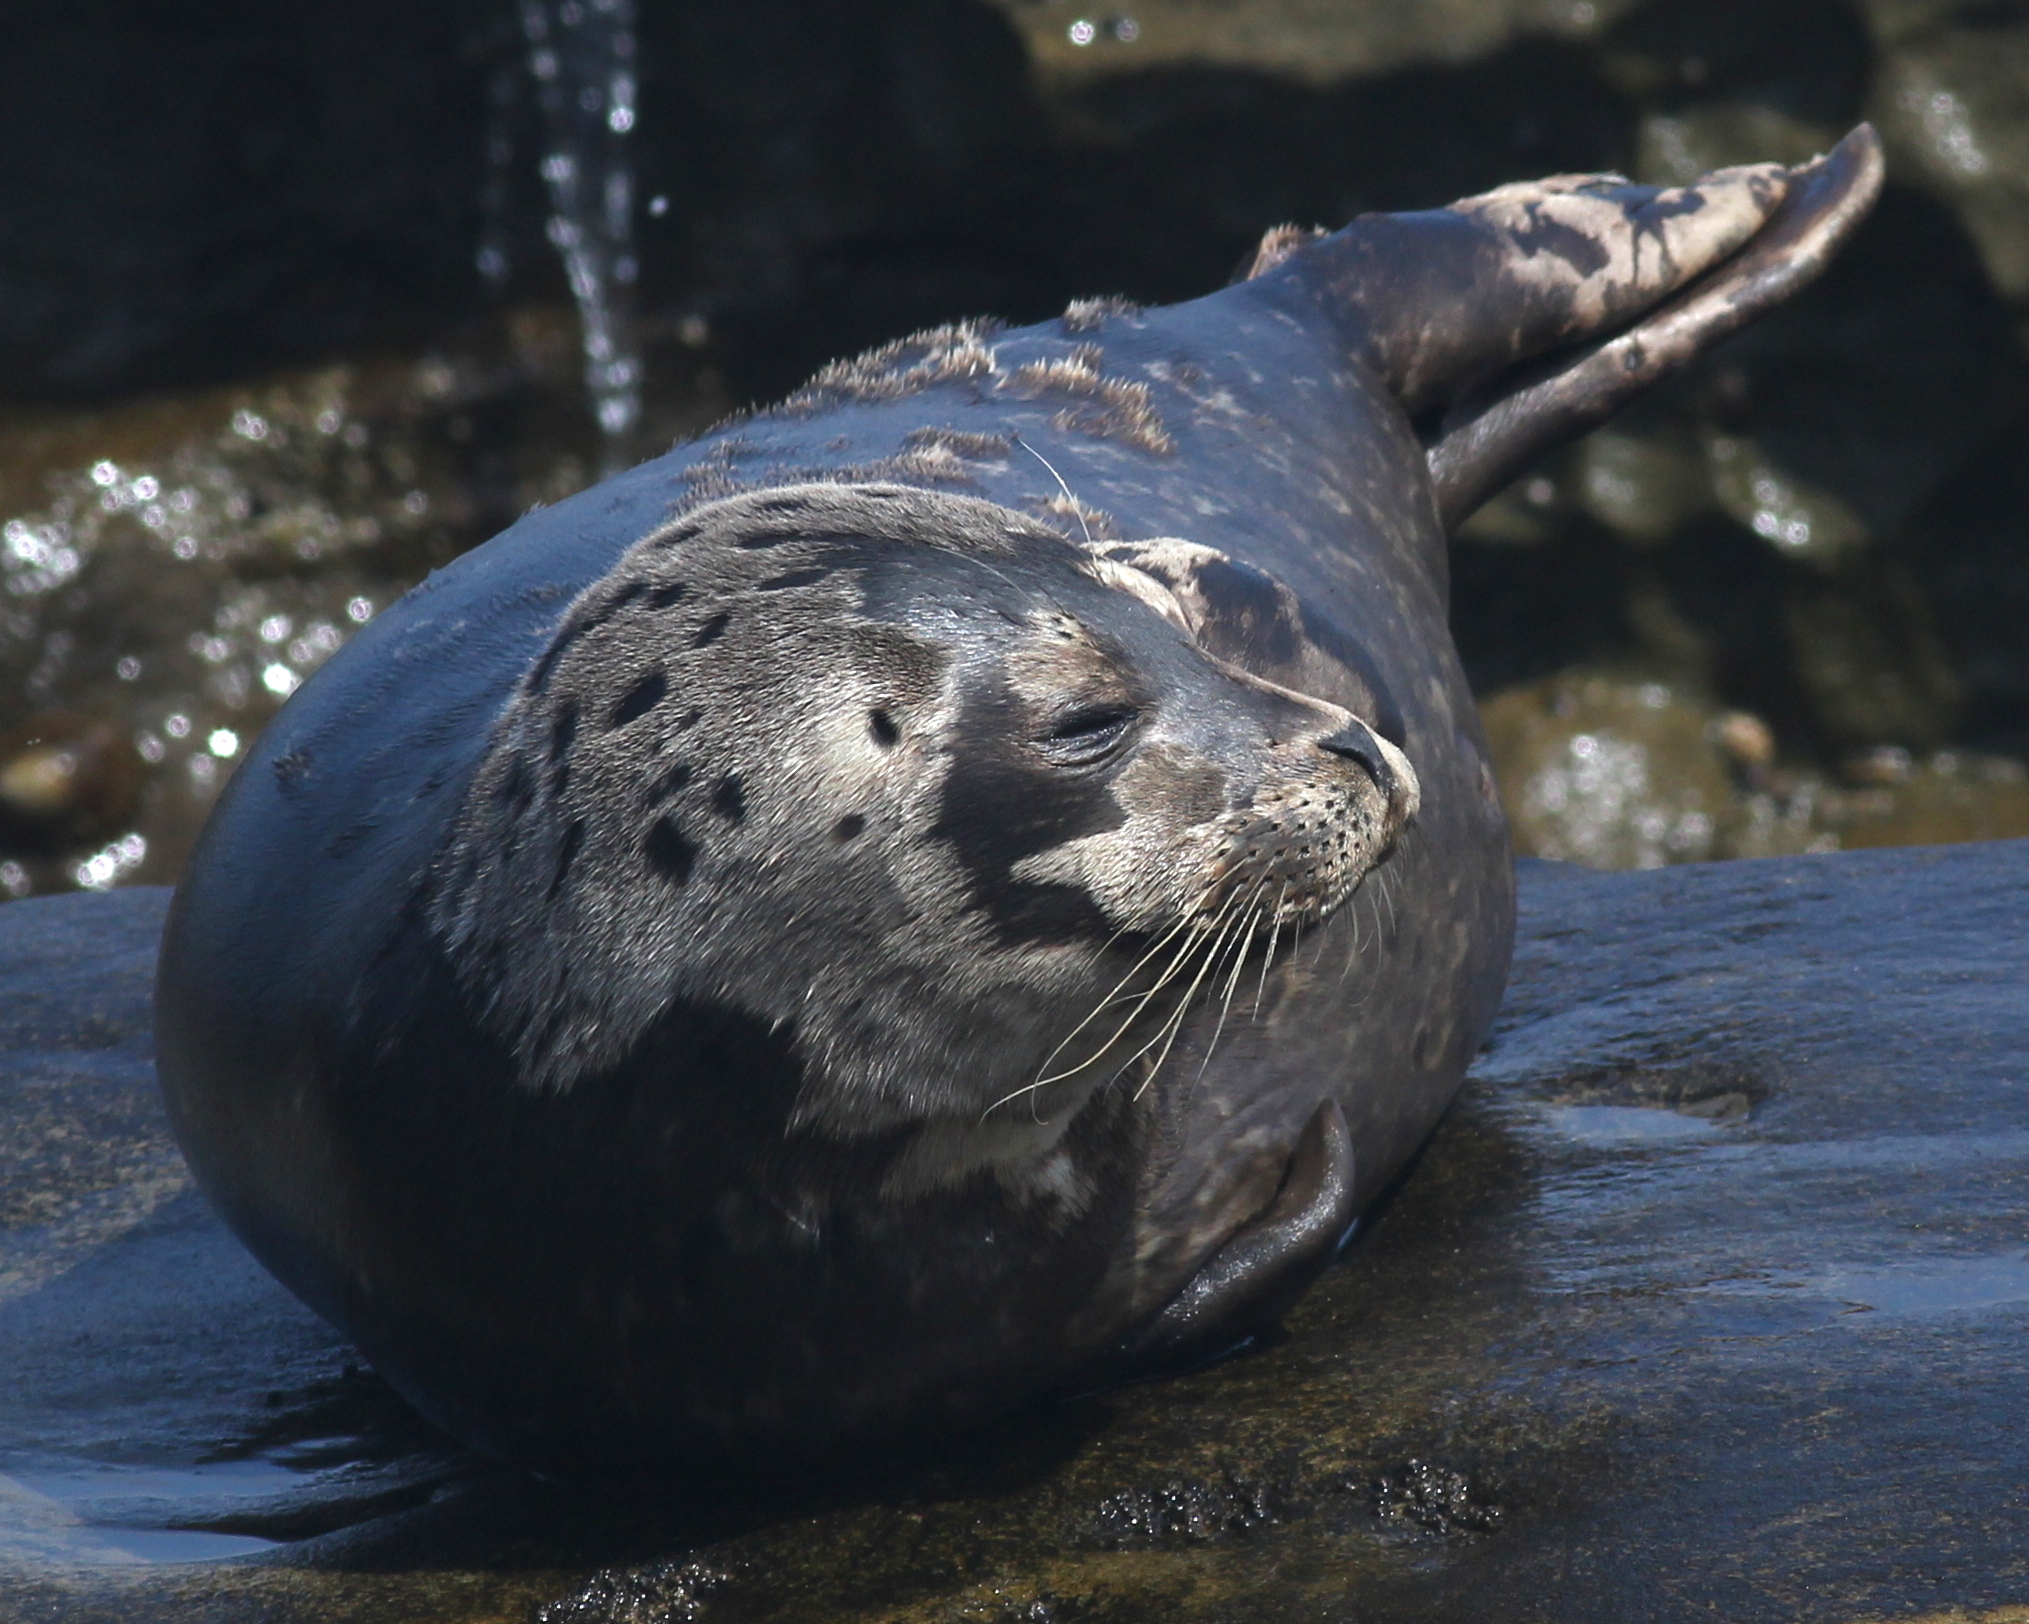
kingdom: Animalia
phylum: Chordata
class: Mammalia
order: Carnivora
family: Phocidae
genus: Phoca
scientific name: Phoca vitulina
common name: Harbor seal
